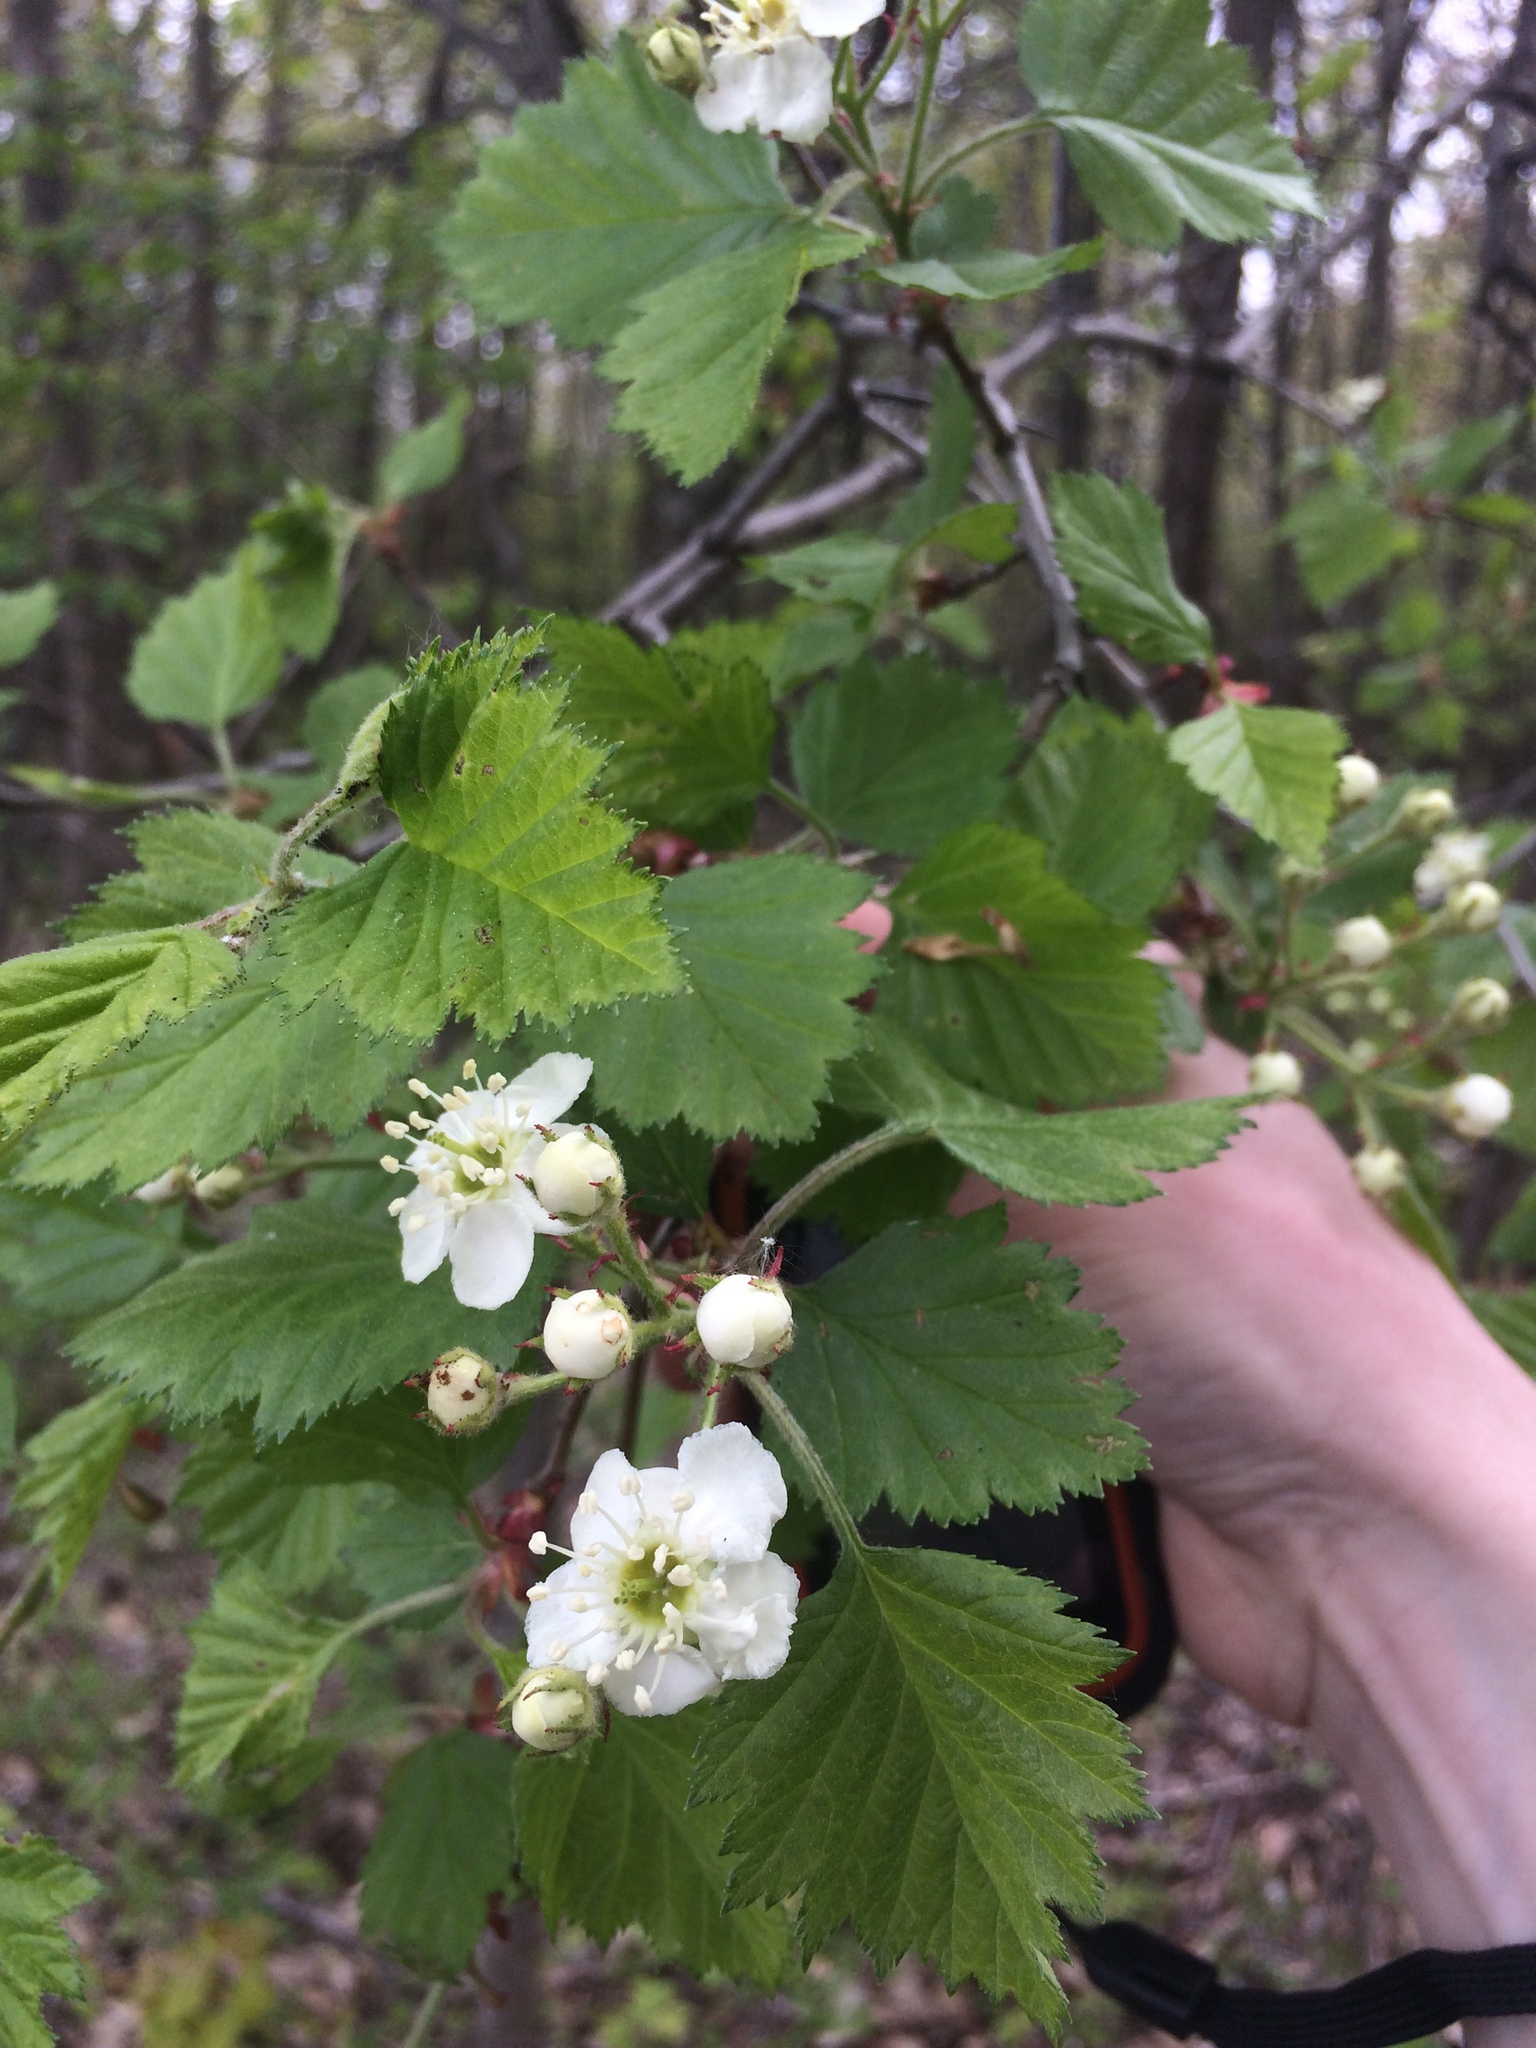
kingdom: Plantae
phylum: Tracheophyta
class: Magnoliopsida
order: Rosales
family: Rosaceae
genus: Crataegus
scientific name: Crataegus submollis
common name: Hairy cockspurthorn
